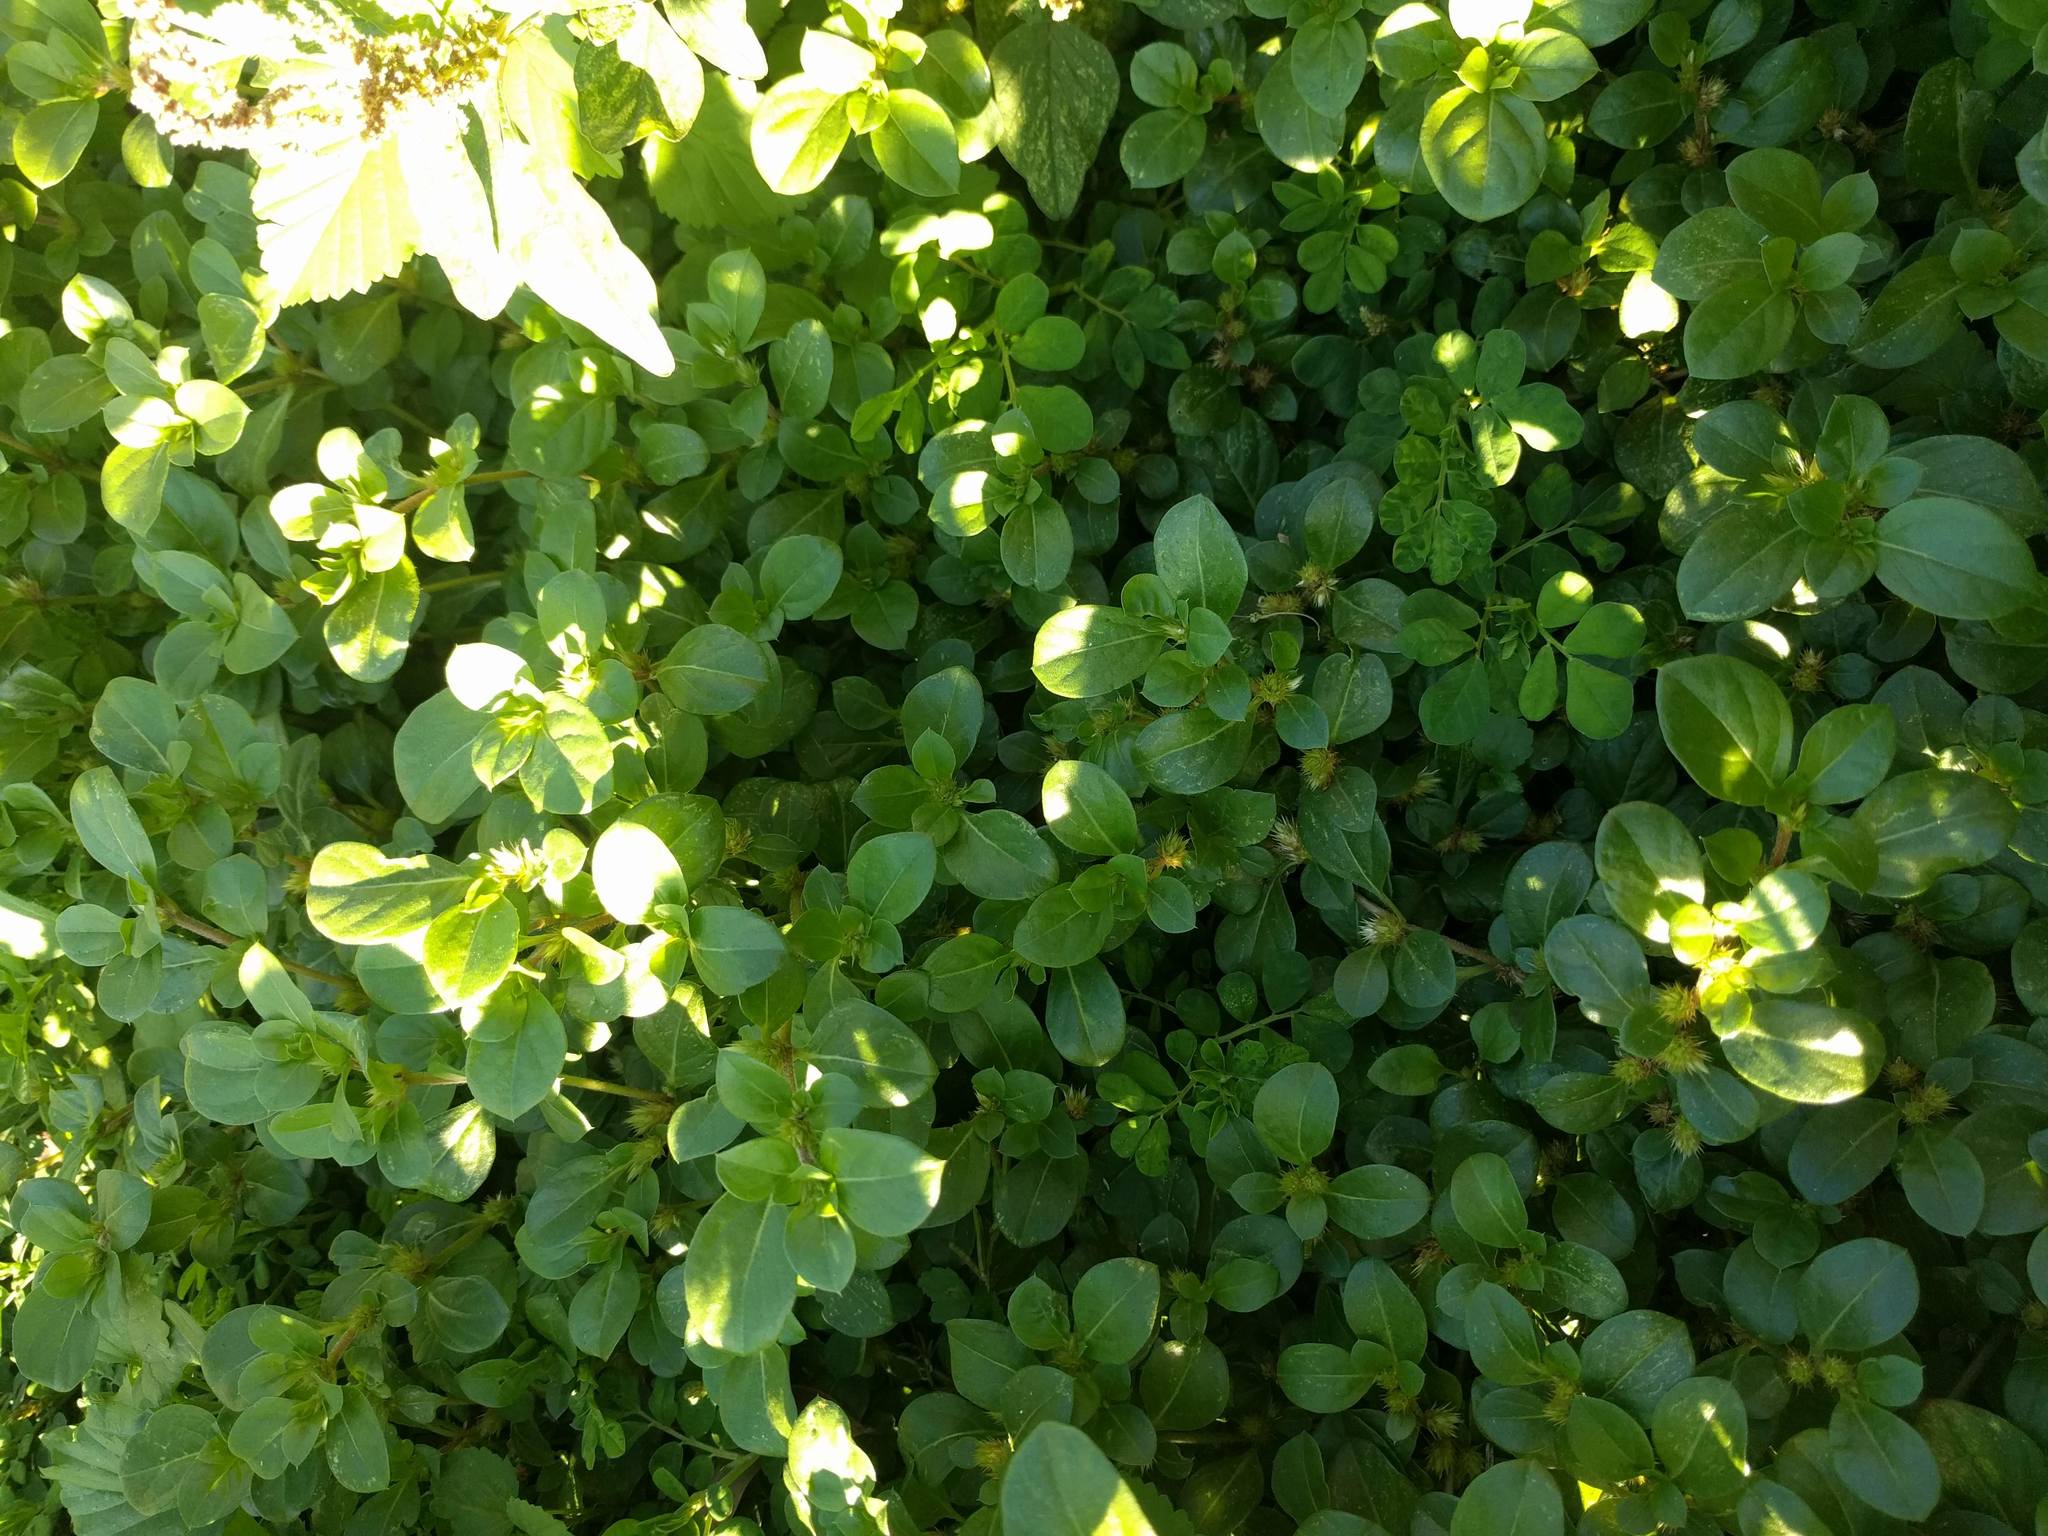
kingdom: Plantae
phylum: Tracheophyta
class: Magnoliopsida
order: Caryophyllales
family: Amaranthaceae
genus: Alternanthera
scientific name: Alternanthera pungens
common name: Khakiweed
